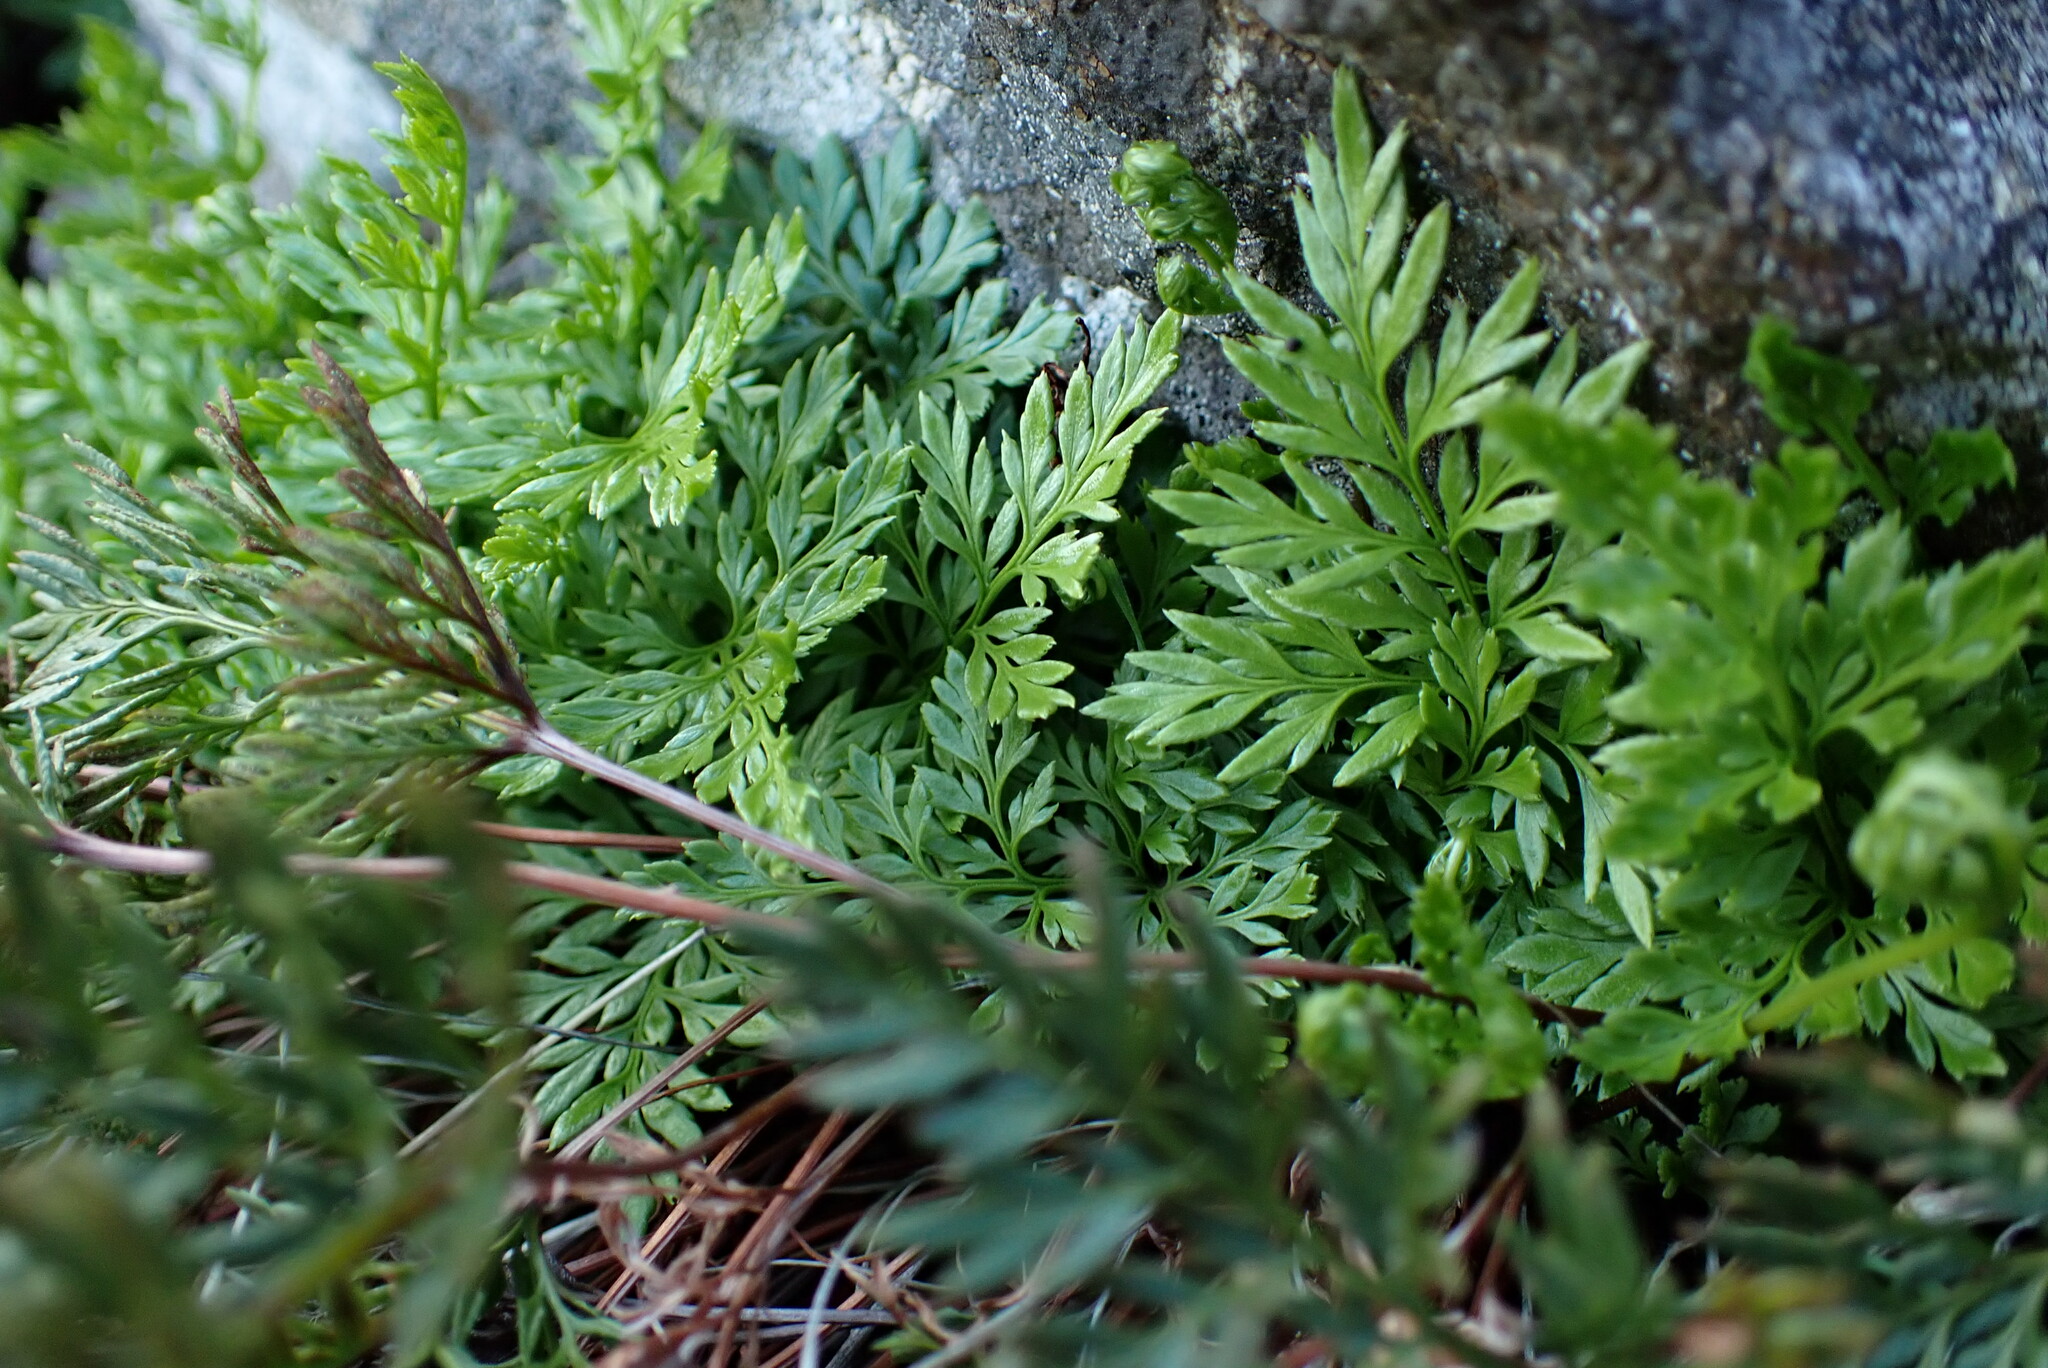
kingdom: Plantae
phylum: Tracheophyta
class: Polypodiopsida
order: Polypodiales
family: Pteridaceae
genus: Aspidotis
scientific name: Aspidotis densa
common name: Indian's dream
